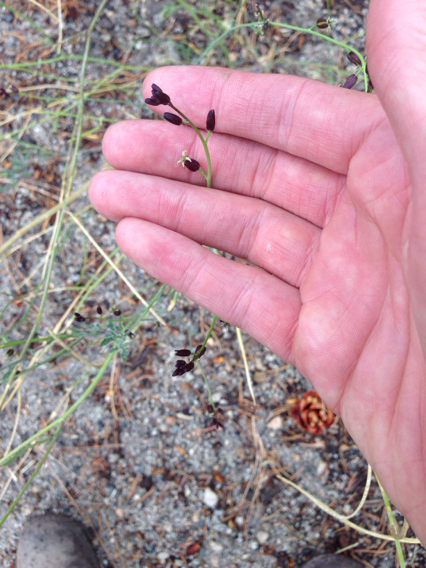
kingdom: Plantae
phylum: Tracheophyta
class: Magnoliopsida
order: Brassicales
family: Brassicaceae
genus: Streptanthus
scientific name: Streptanthus pilosus
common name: Chocolate drops
